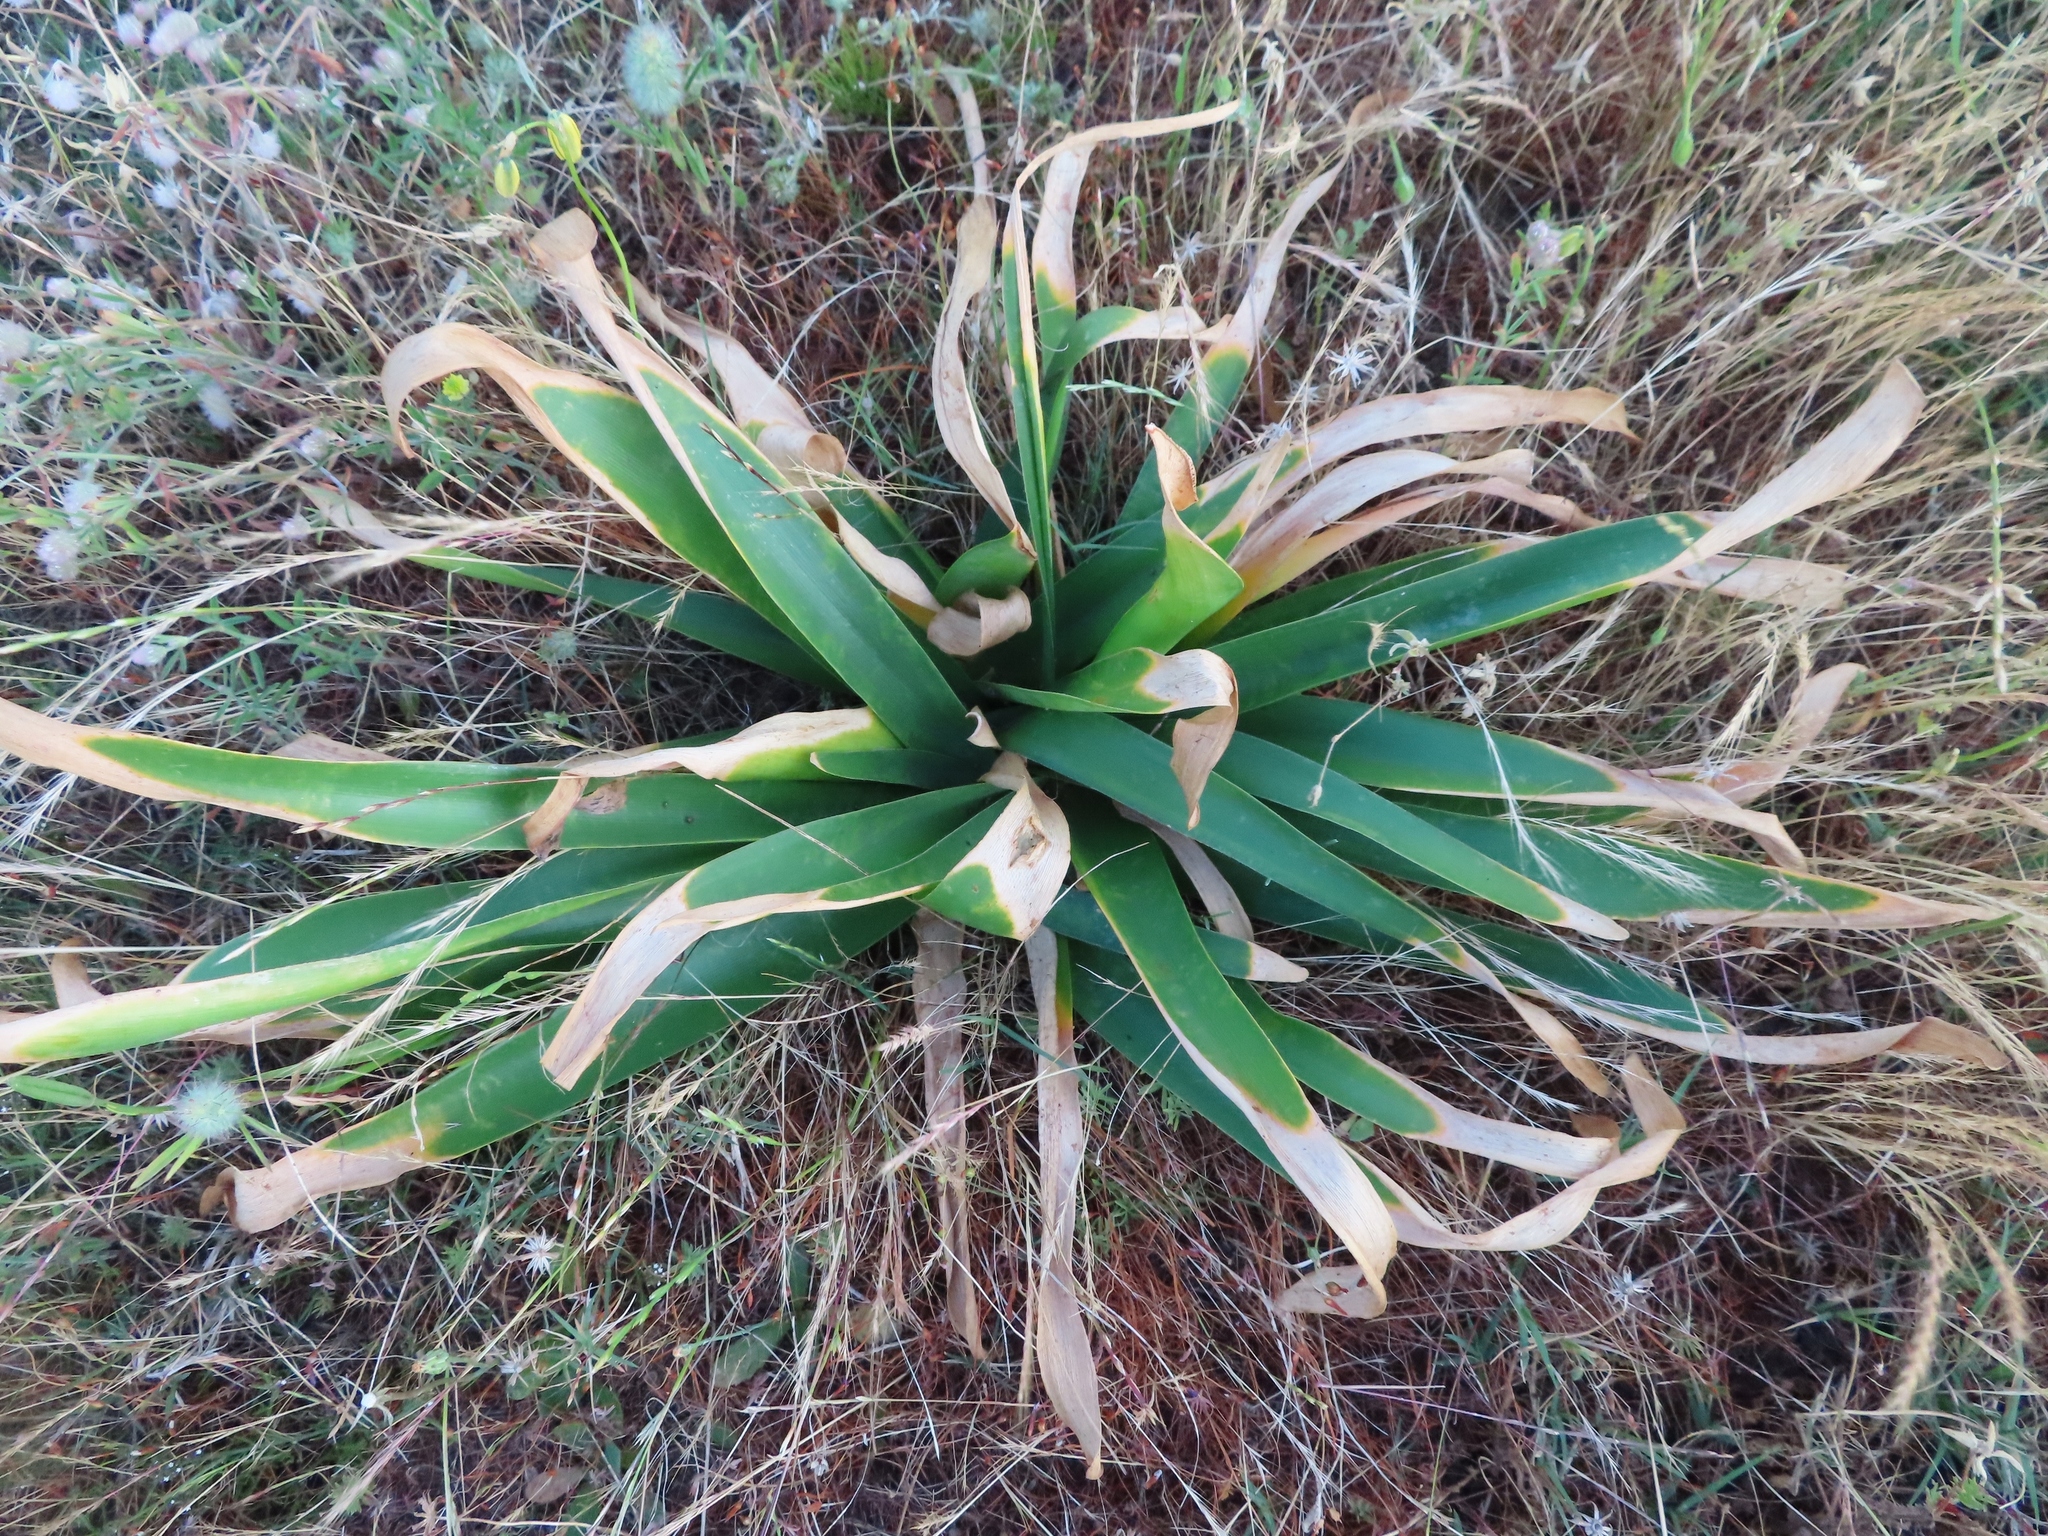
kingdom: Plantae
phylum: Tracheophyta
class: Liliopsida
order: Asparagales
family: Amaryllidaceae
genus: Ammocharis
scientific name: Ammocharis longifolia
